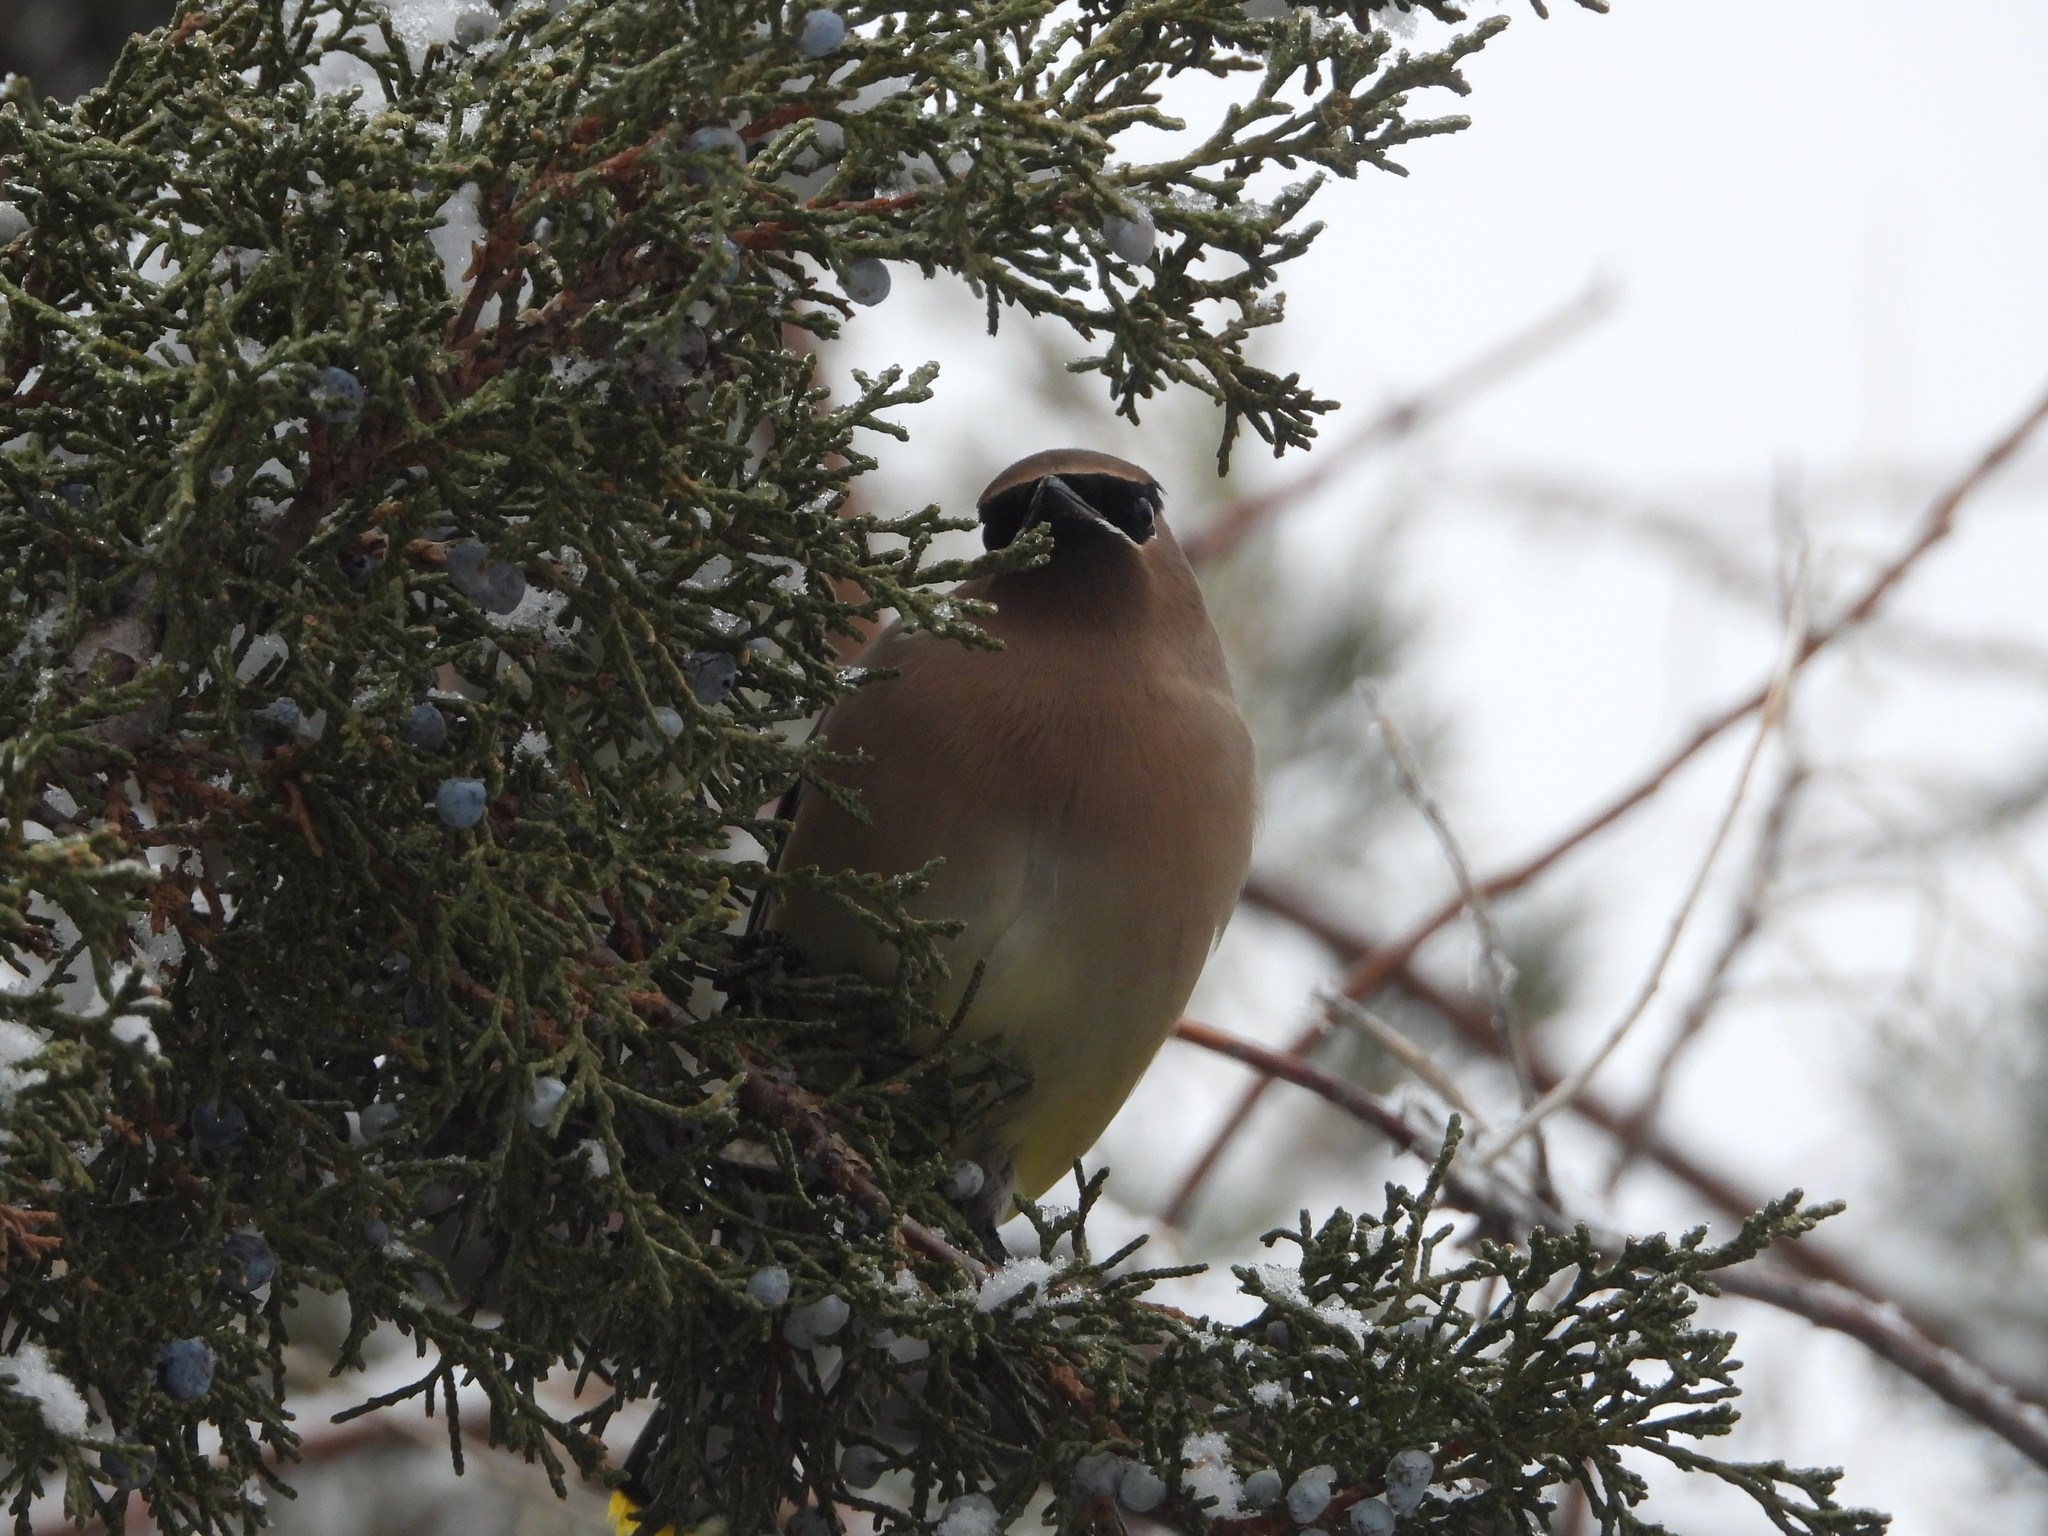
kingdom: Animalia
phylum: Chordata
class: Aves
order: Passeriformes
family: Bombycillidae
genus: Bombycilla
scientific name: Bombycilla cedrorum
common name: Cedar waxwing
